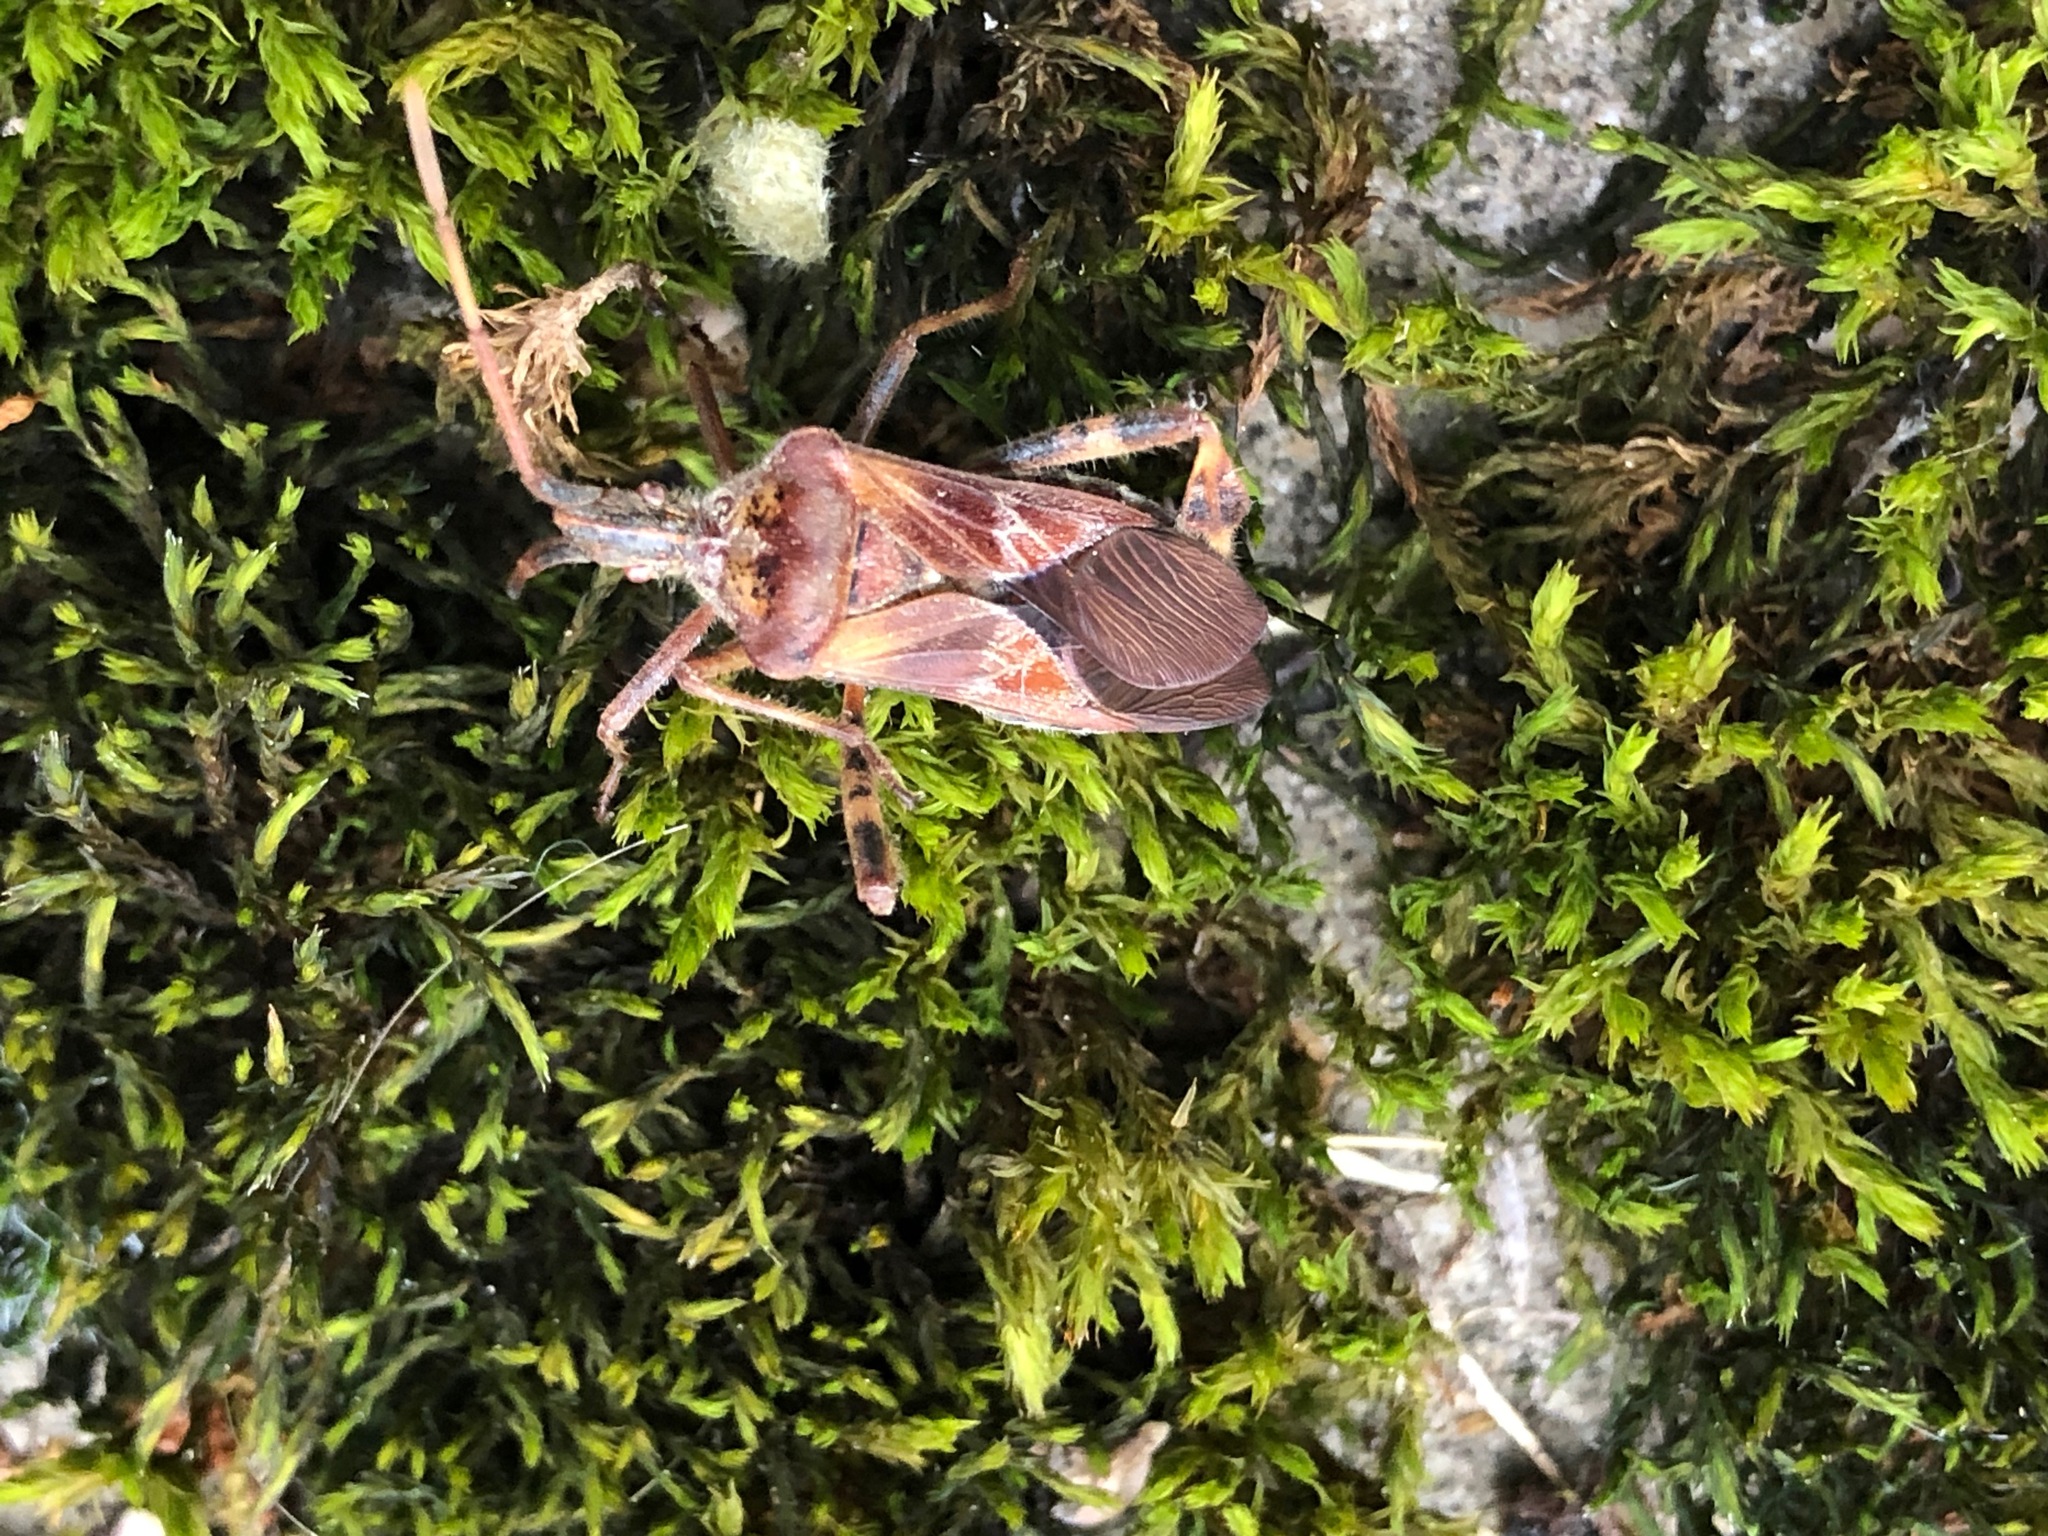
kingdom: Animalia
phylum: Arthropoda
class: Insecta
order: Hemiptera
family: Coreidae
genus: Leptoglossus
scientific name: Leptoglossus occidentalis
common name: Western conifer-seed bug
